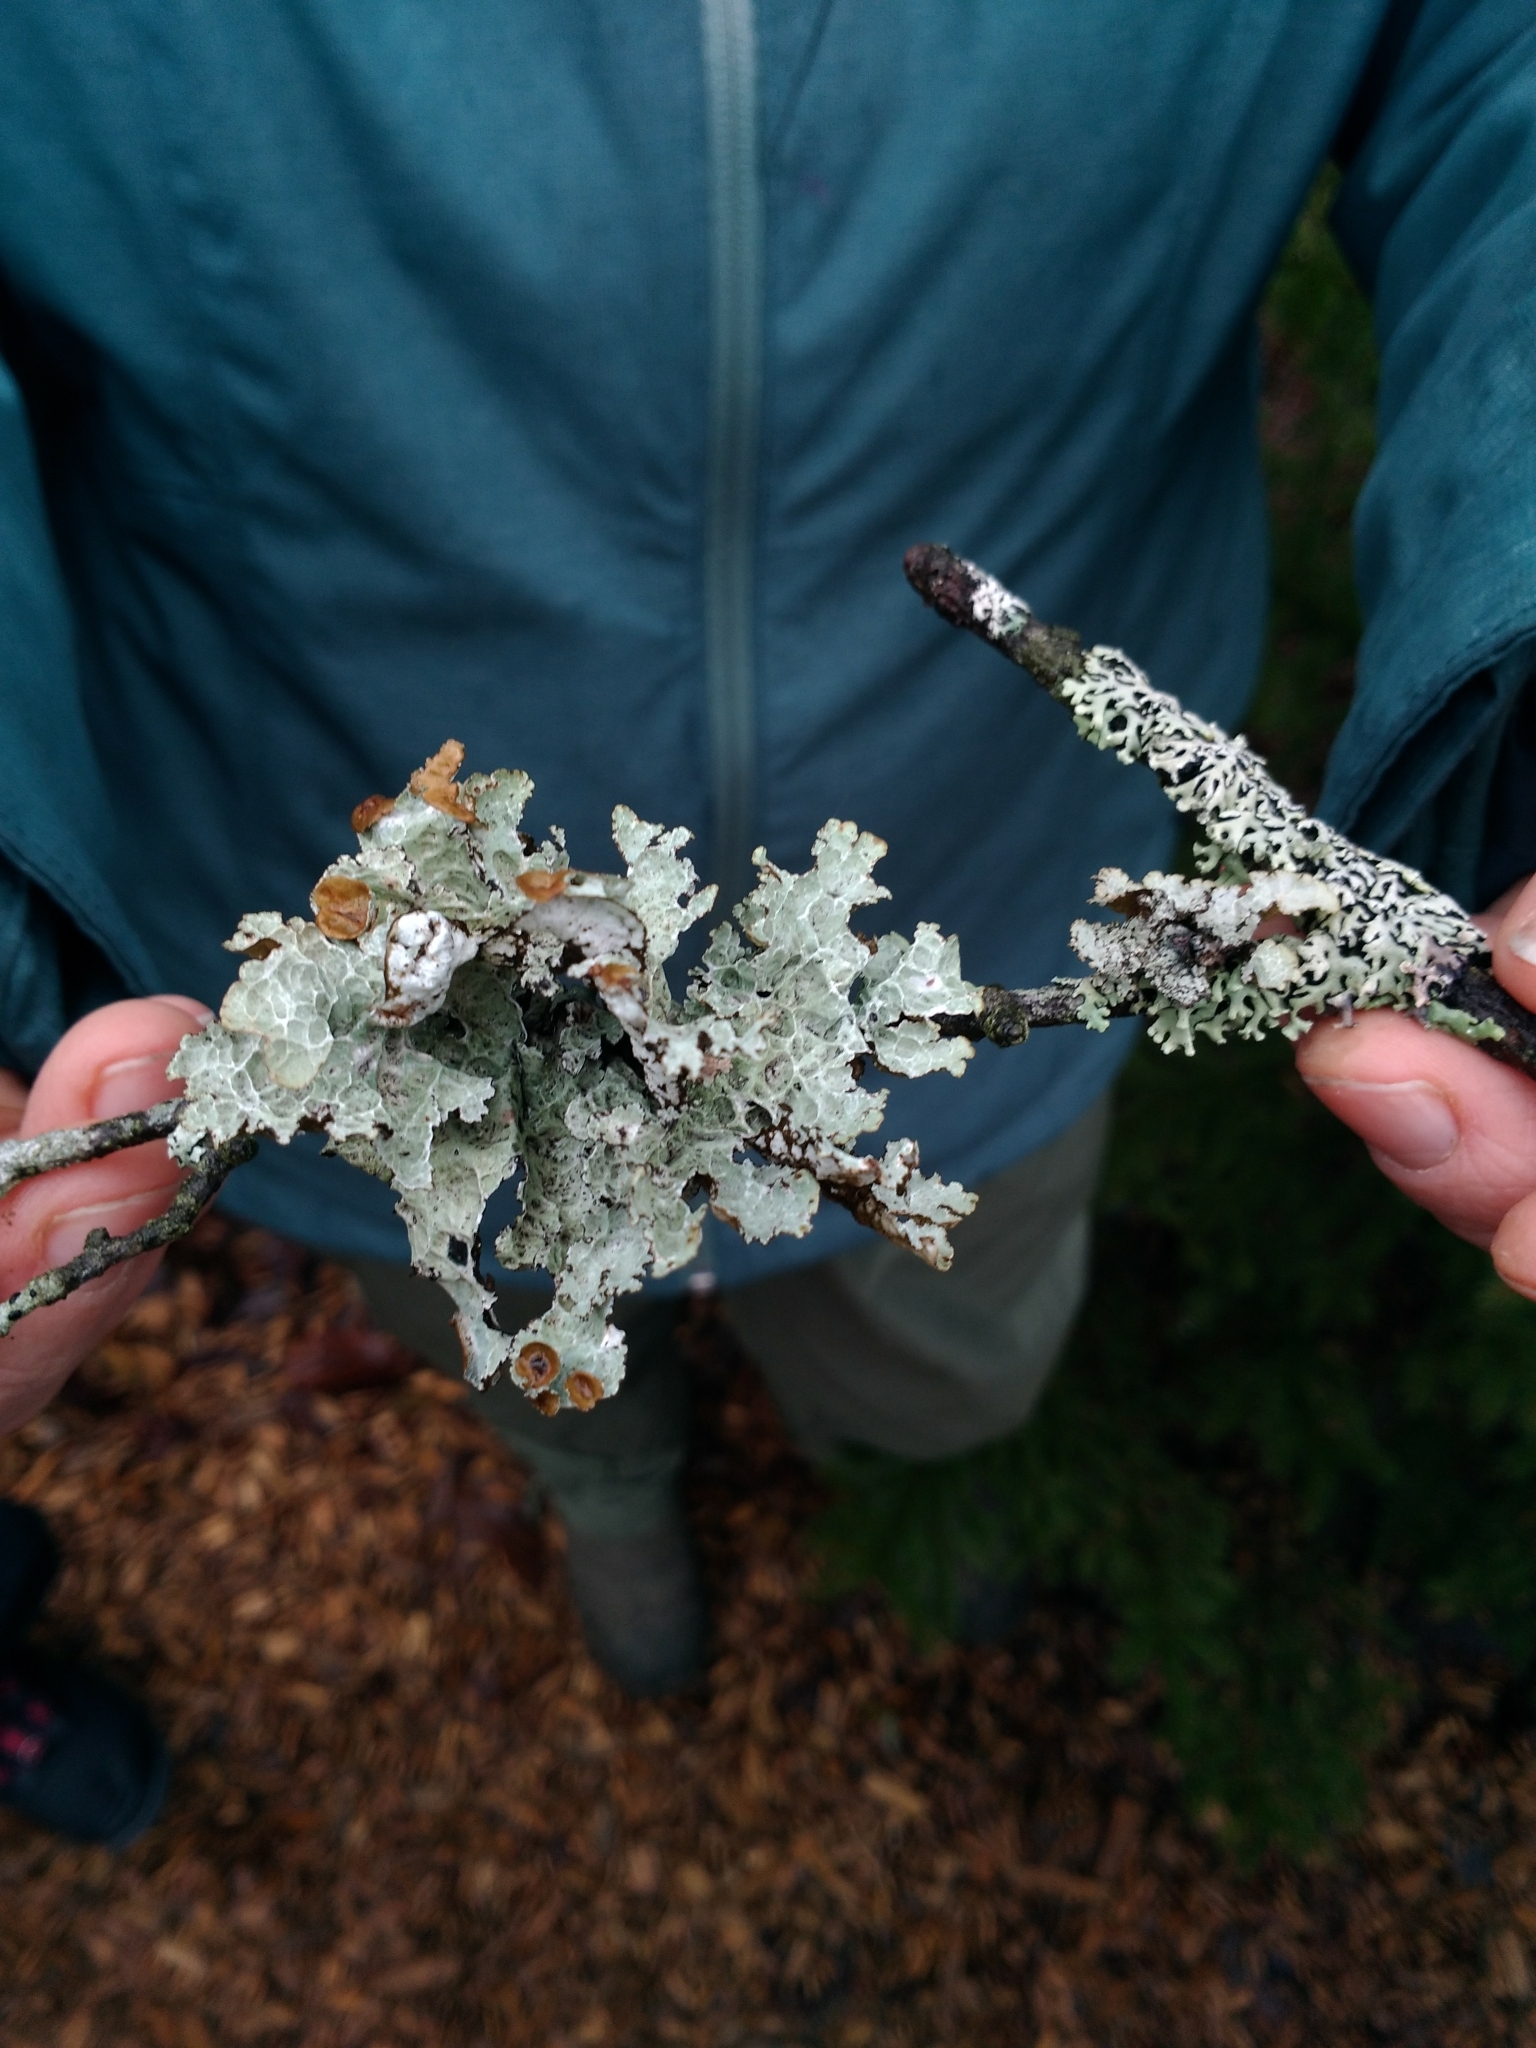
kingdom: Fungi
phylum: Ascomycota
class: Lecanoromycetes
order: Lecanorales
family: Parmeliaceae
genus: Platismatia
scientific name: Platismatia tuckermanii
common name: Crumpled rag lichen
